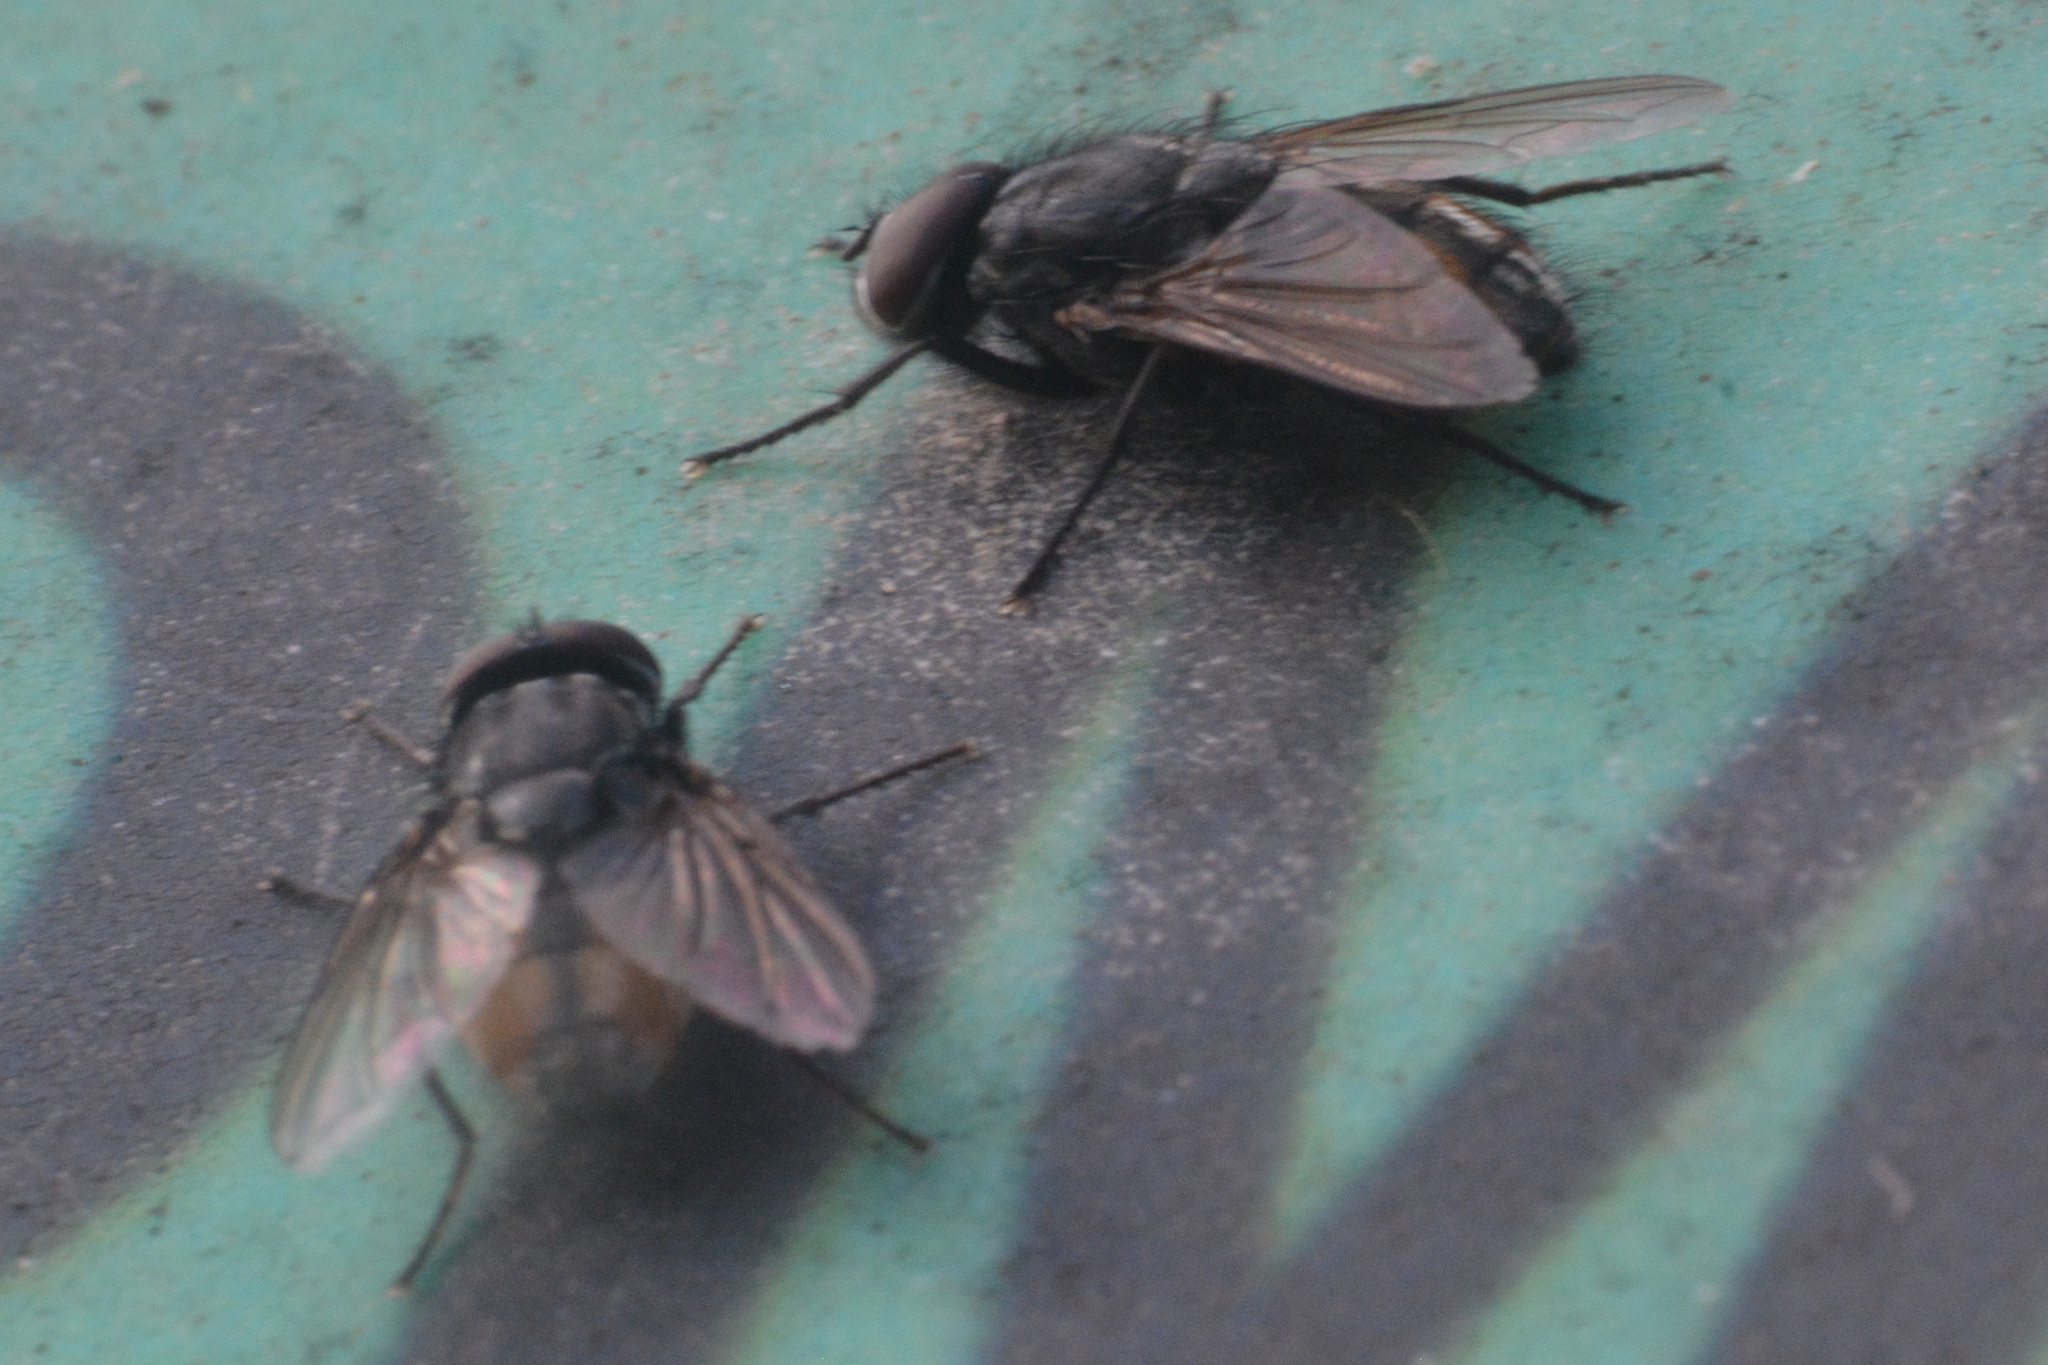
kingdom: Animalia
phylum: Arthropoda
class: Insecta
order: Diptera
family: Muscidae
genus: Musca
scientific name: Musca autumnalis
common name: Face fly
